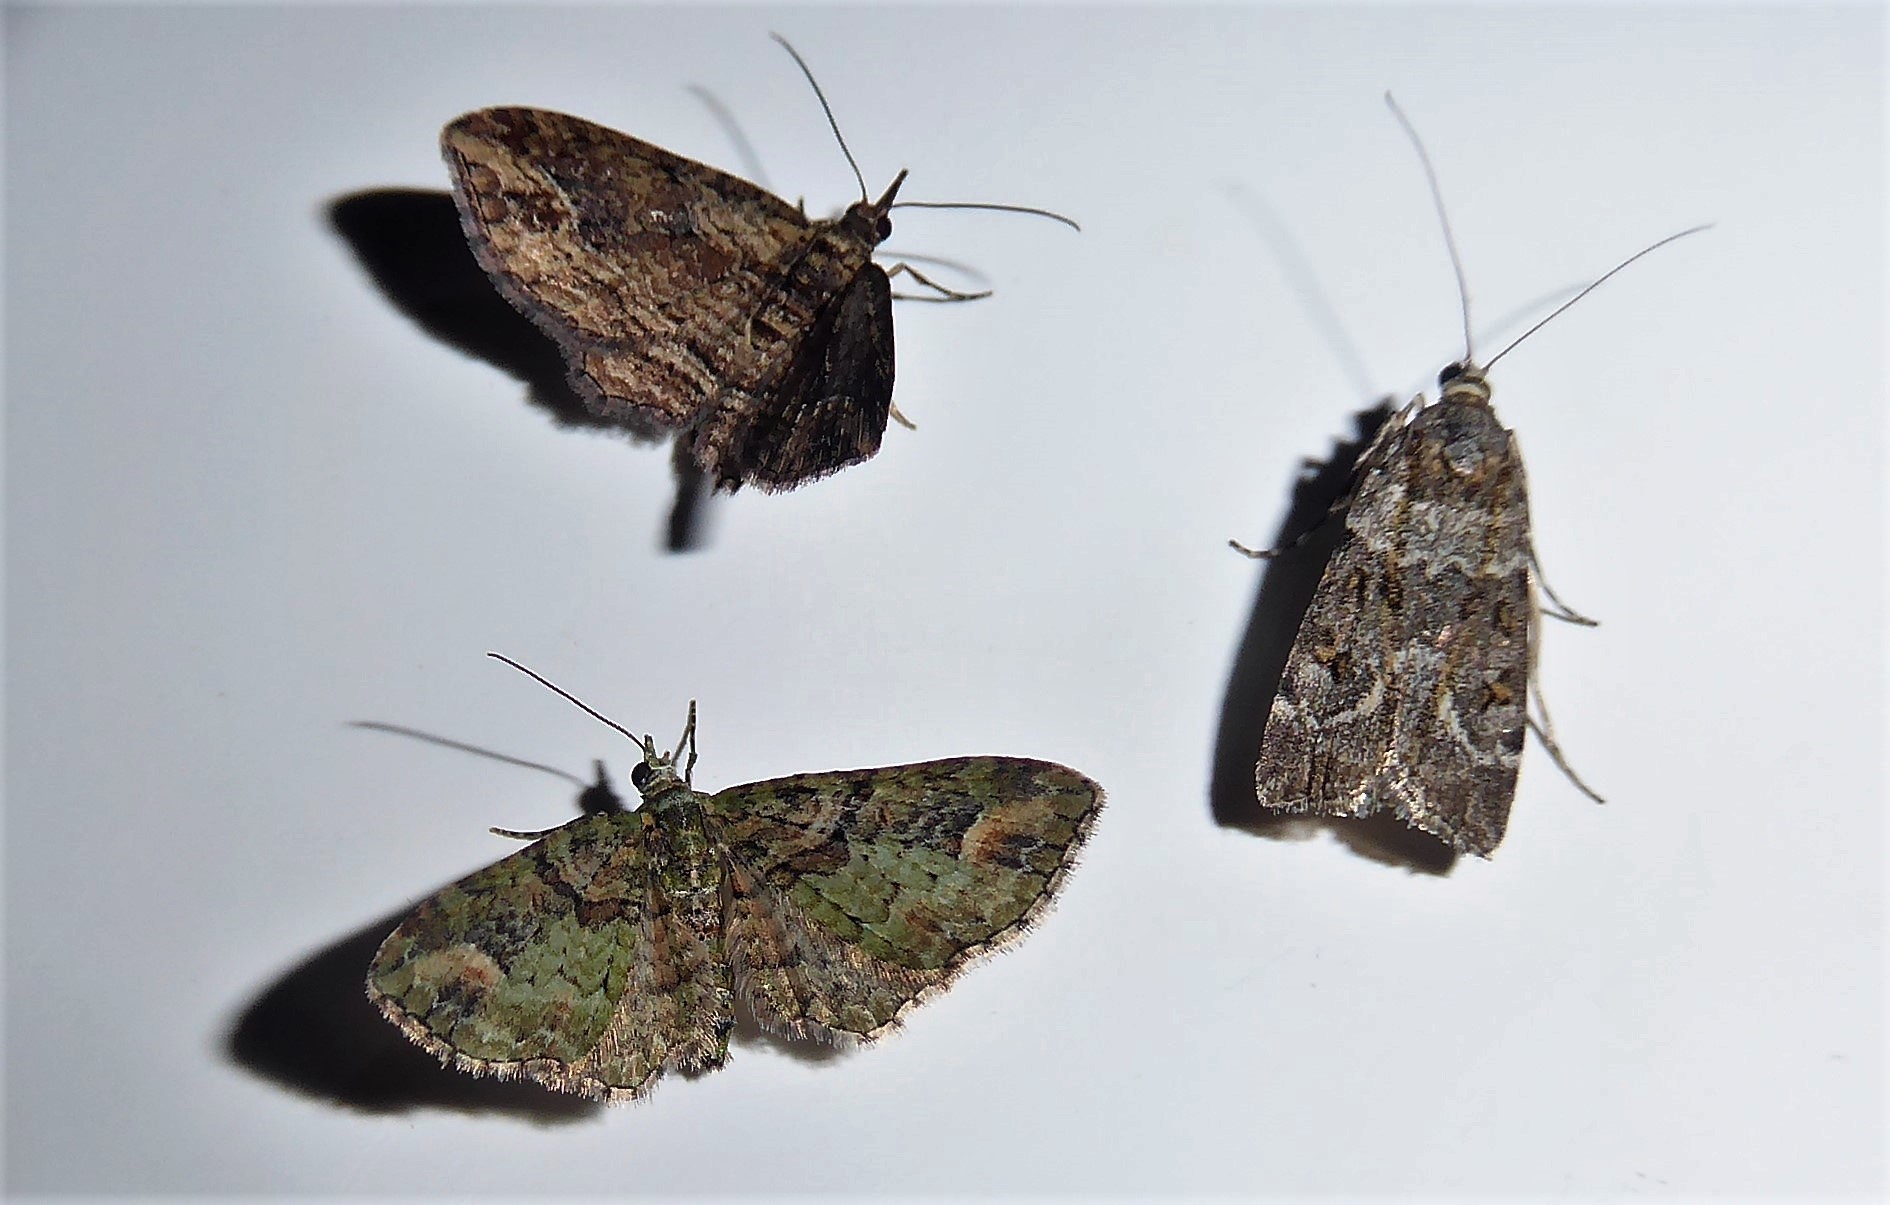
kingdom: Animalia
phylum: Arthropoda
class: Insecta
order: Lepidoptera
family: Geometridae
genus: Idaea
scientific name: Idaea mutanda
